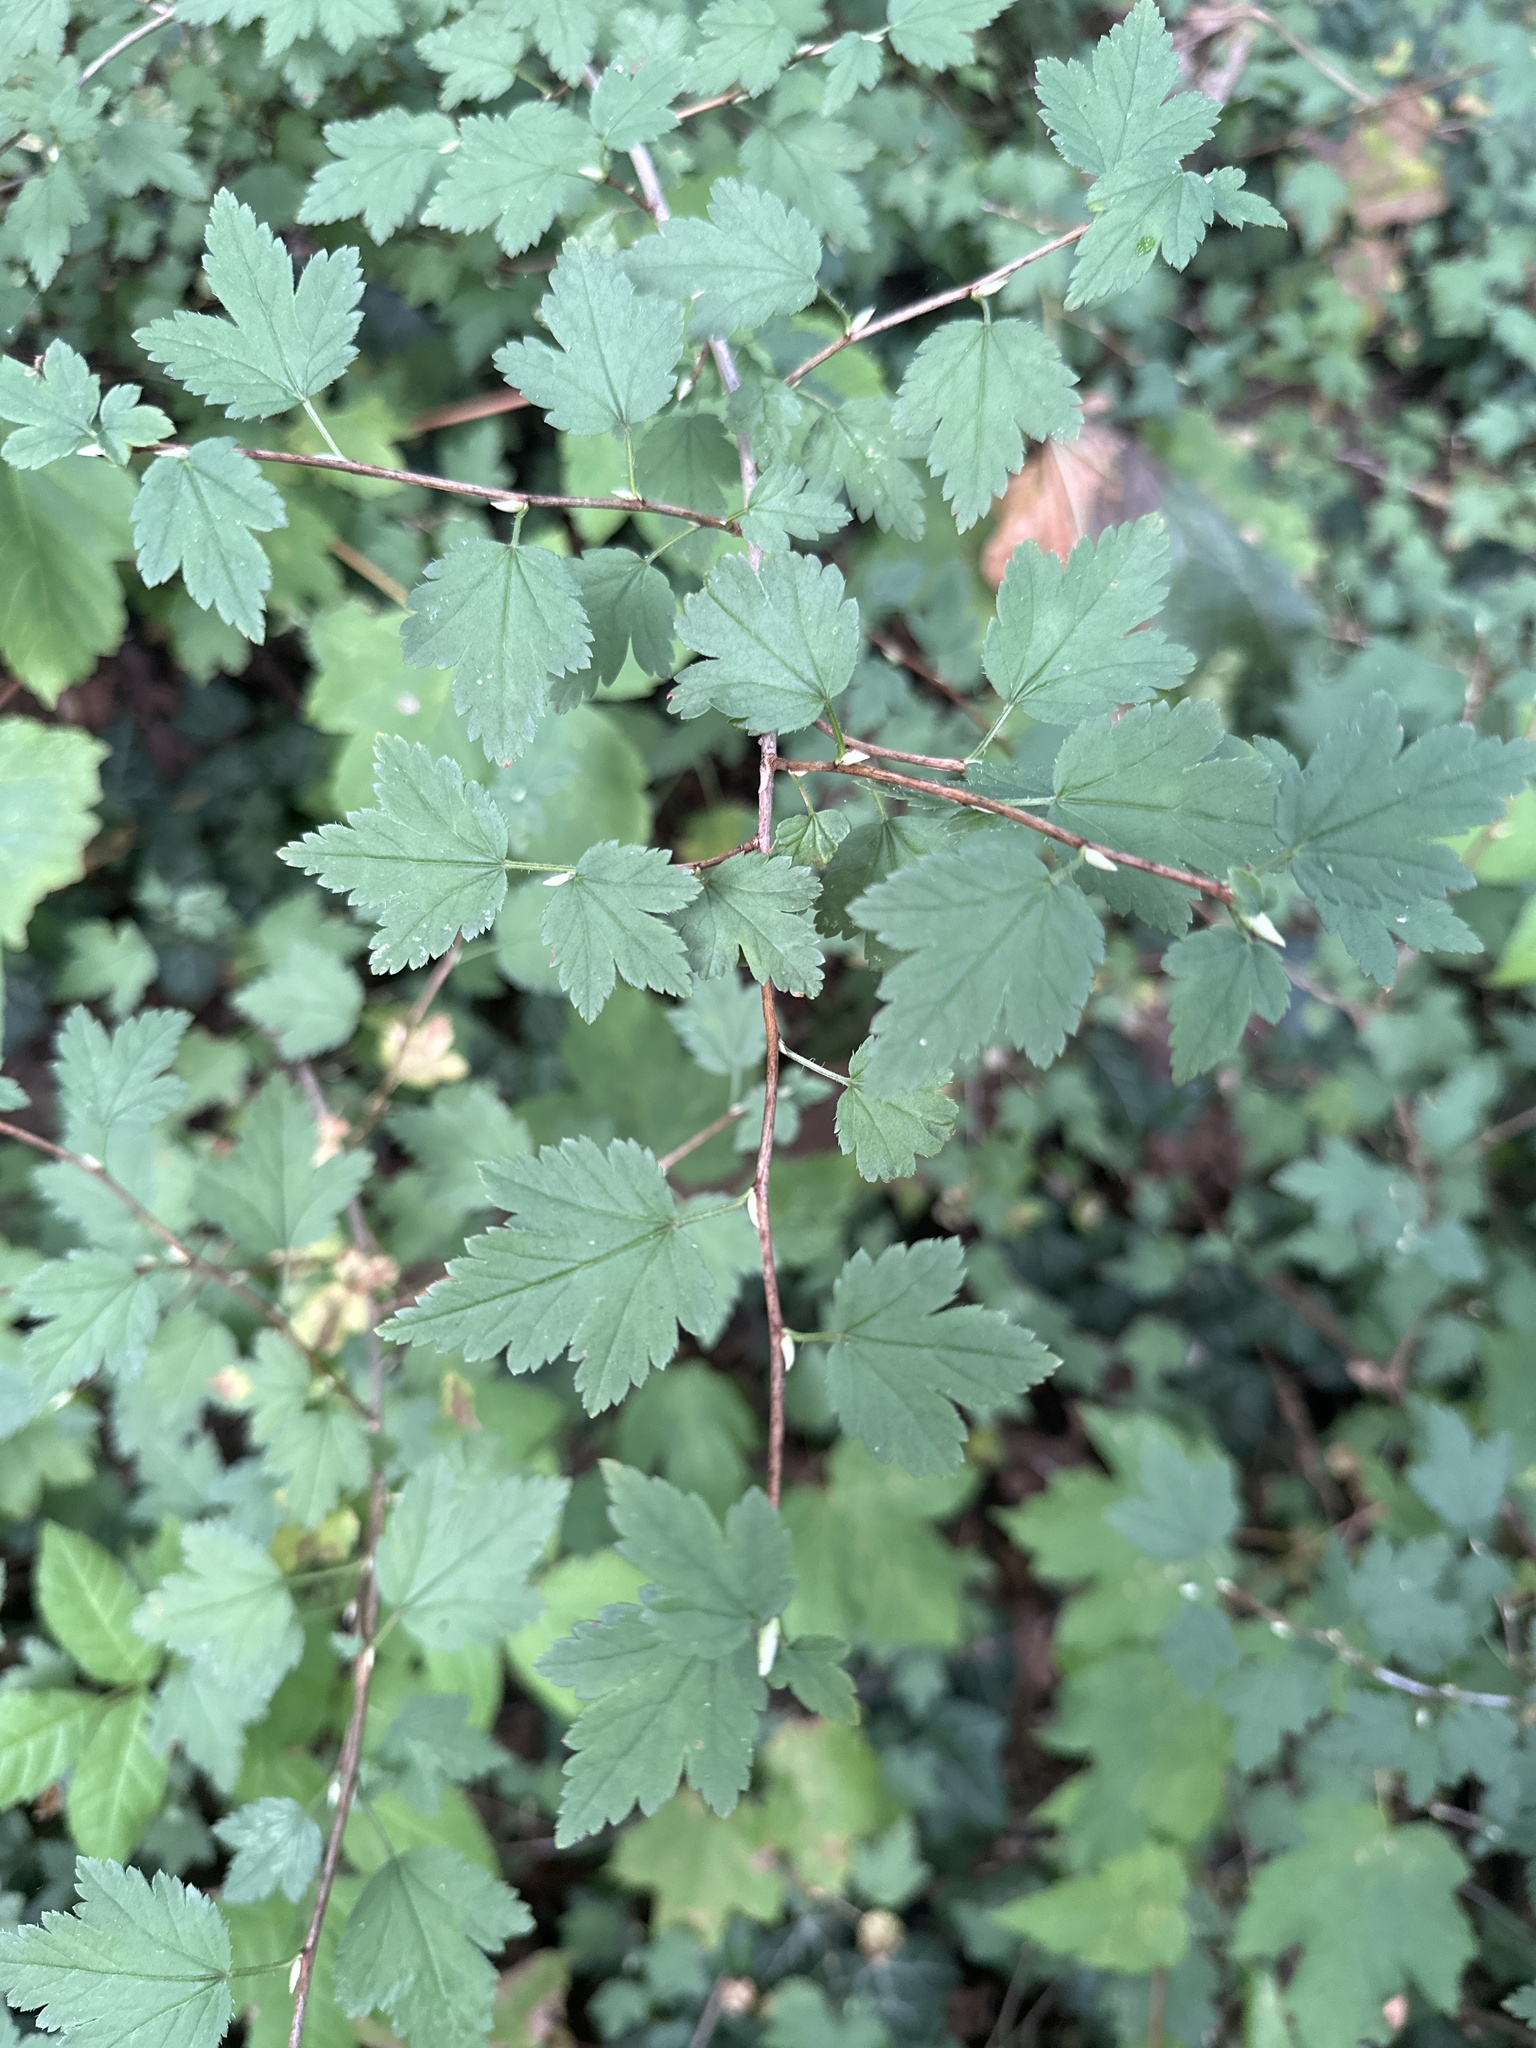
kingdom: Plantae
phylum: Tracheophyta
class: Magnoliopsida
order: Saxifragales
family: Grossulariaceae
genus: Ribes
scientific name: Ribes alpinum
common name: Alpine currant
